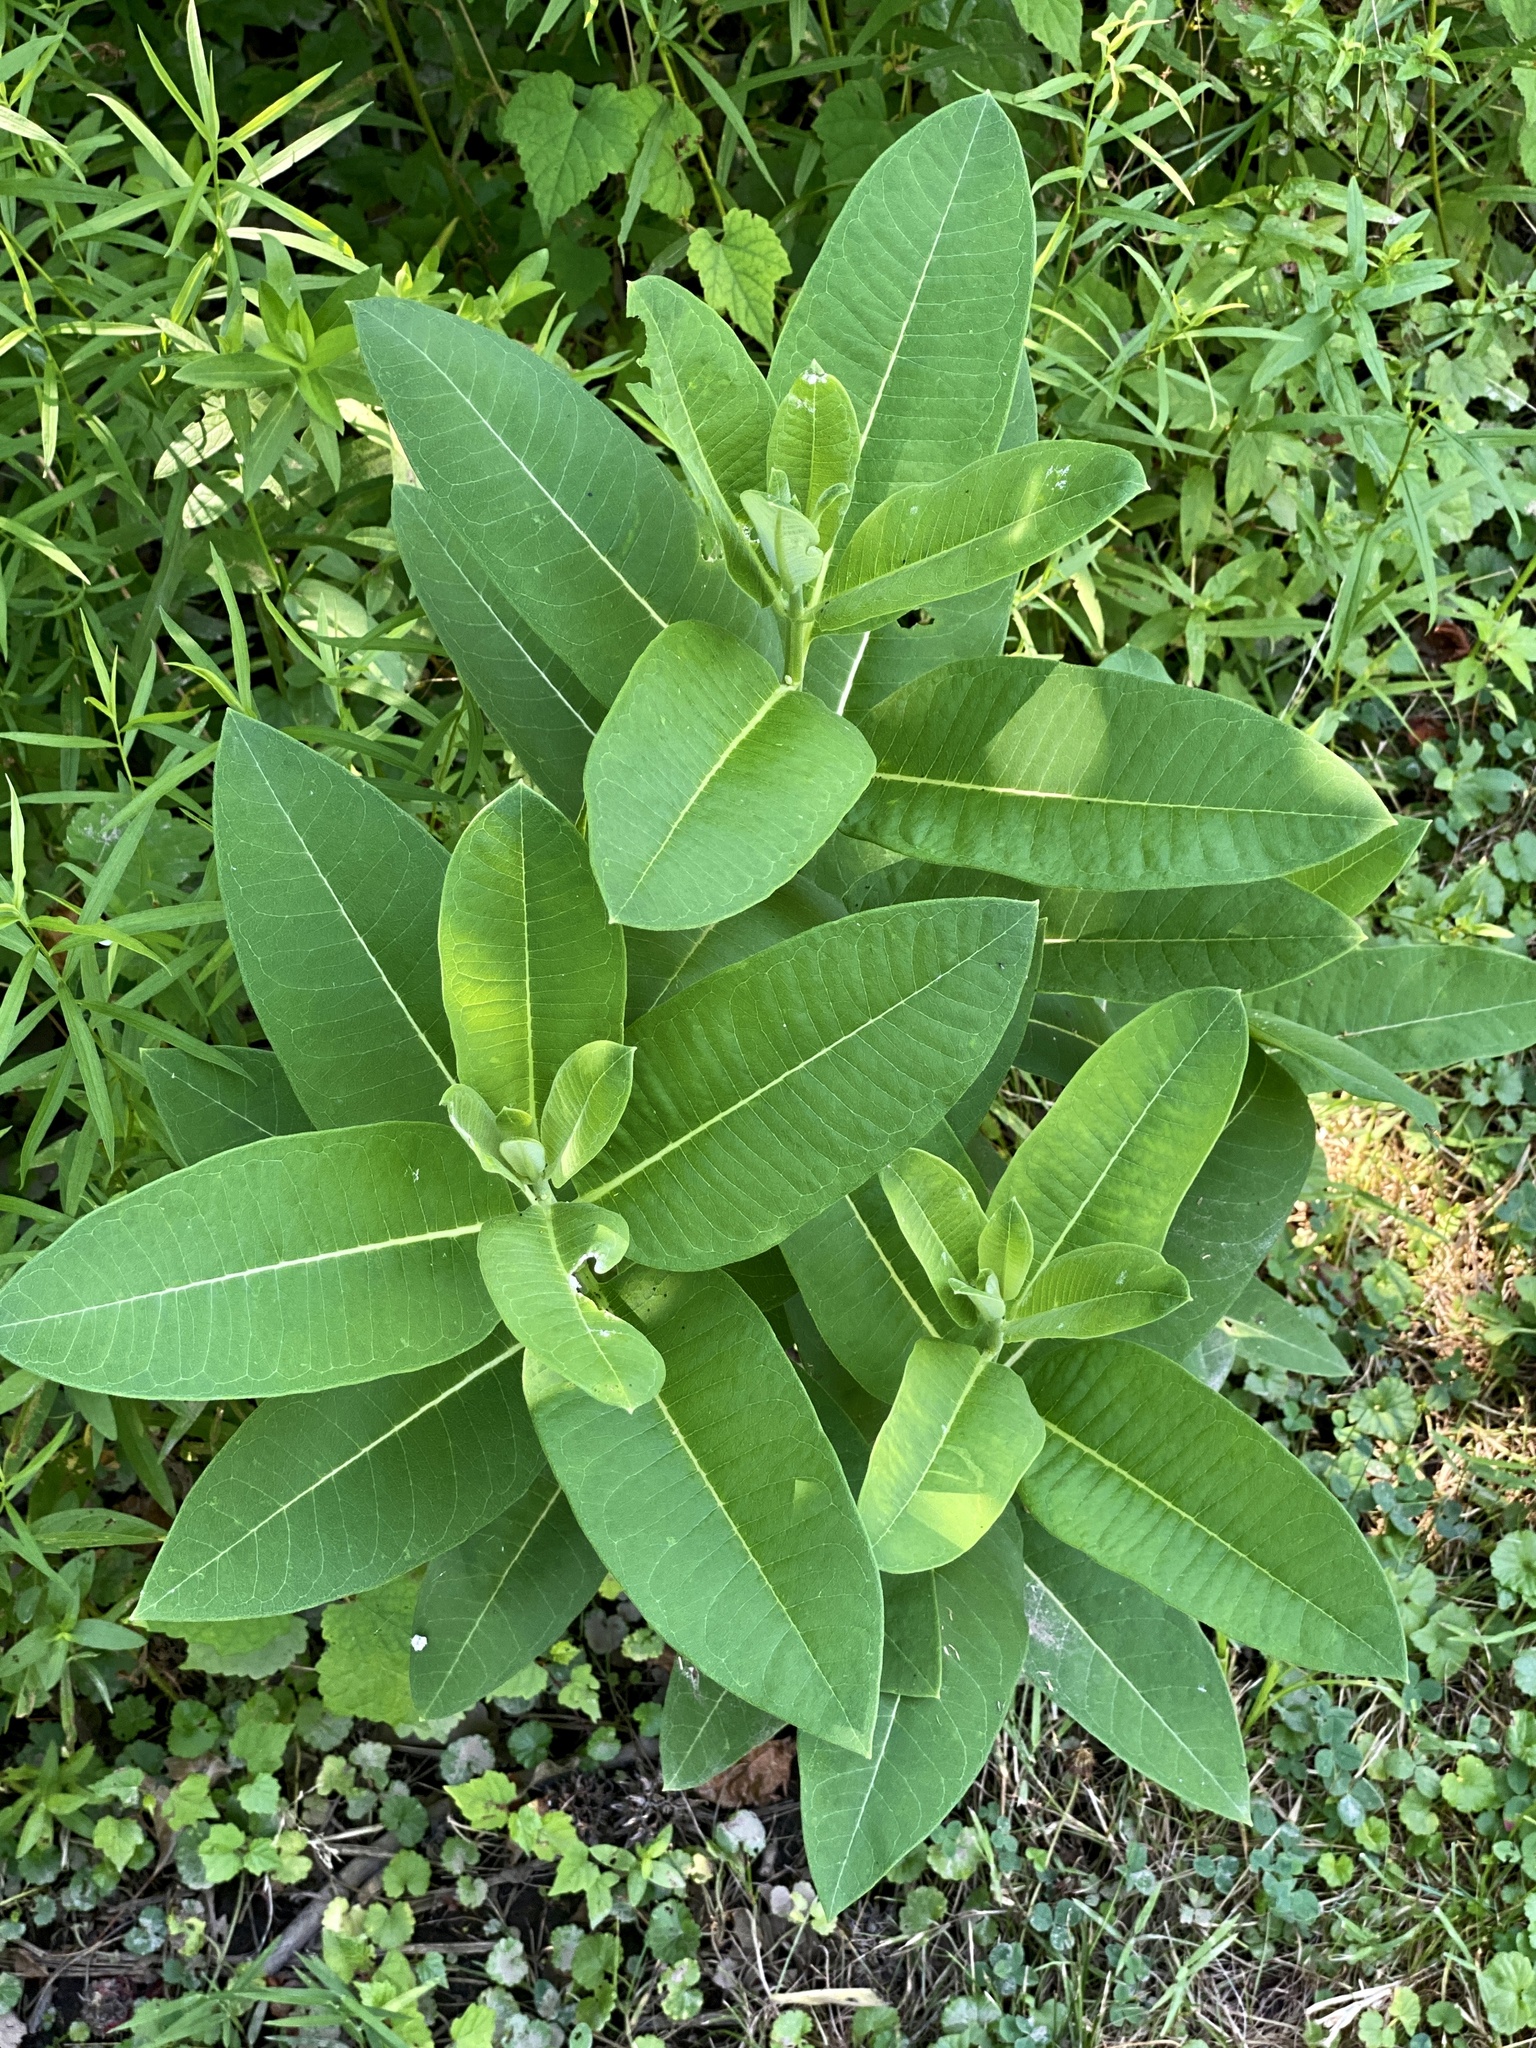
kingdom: Plantae
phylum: Tracheophyta
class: Magnoliopsida
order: Gentianales
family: Apocynaceae
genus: Asclepias
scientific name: Asclepias syriaca
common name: Common milkweed
